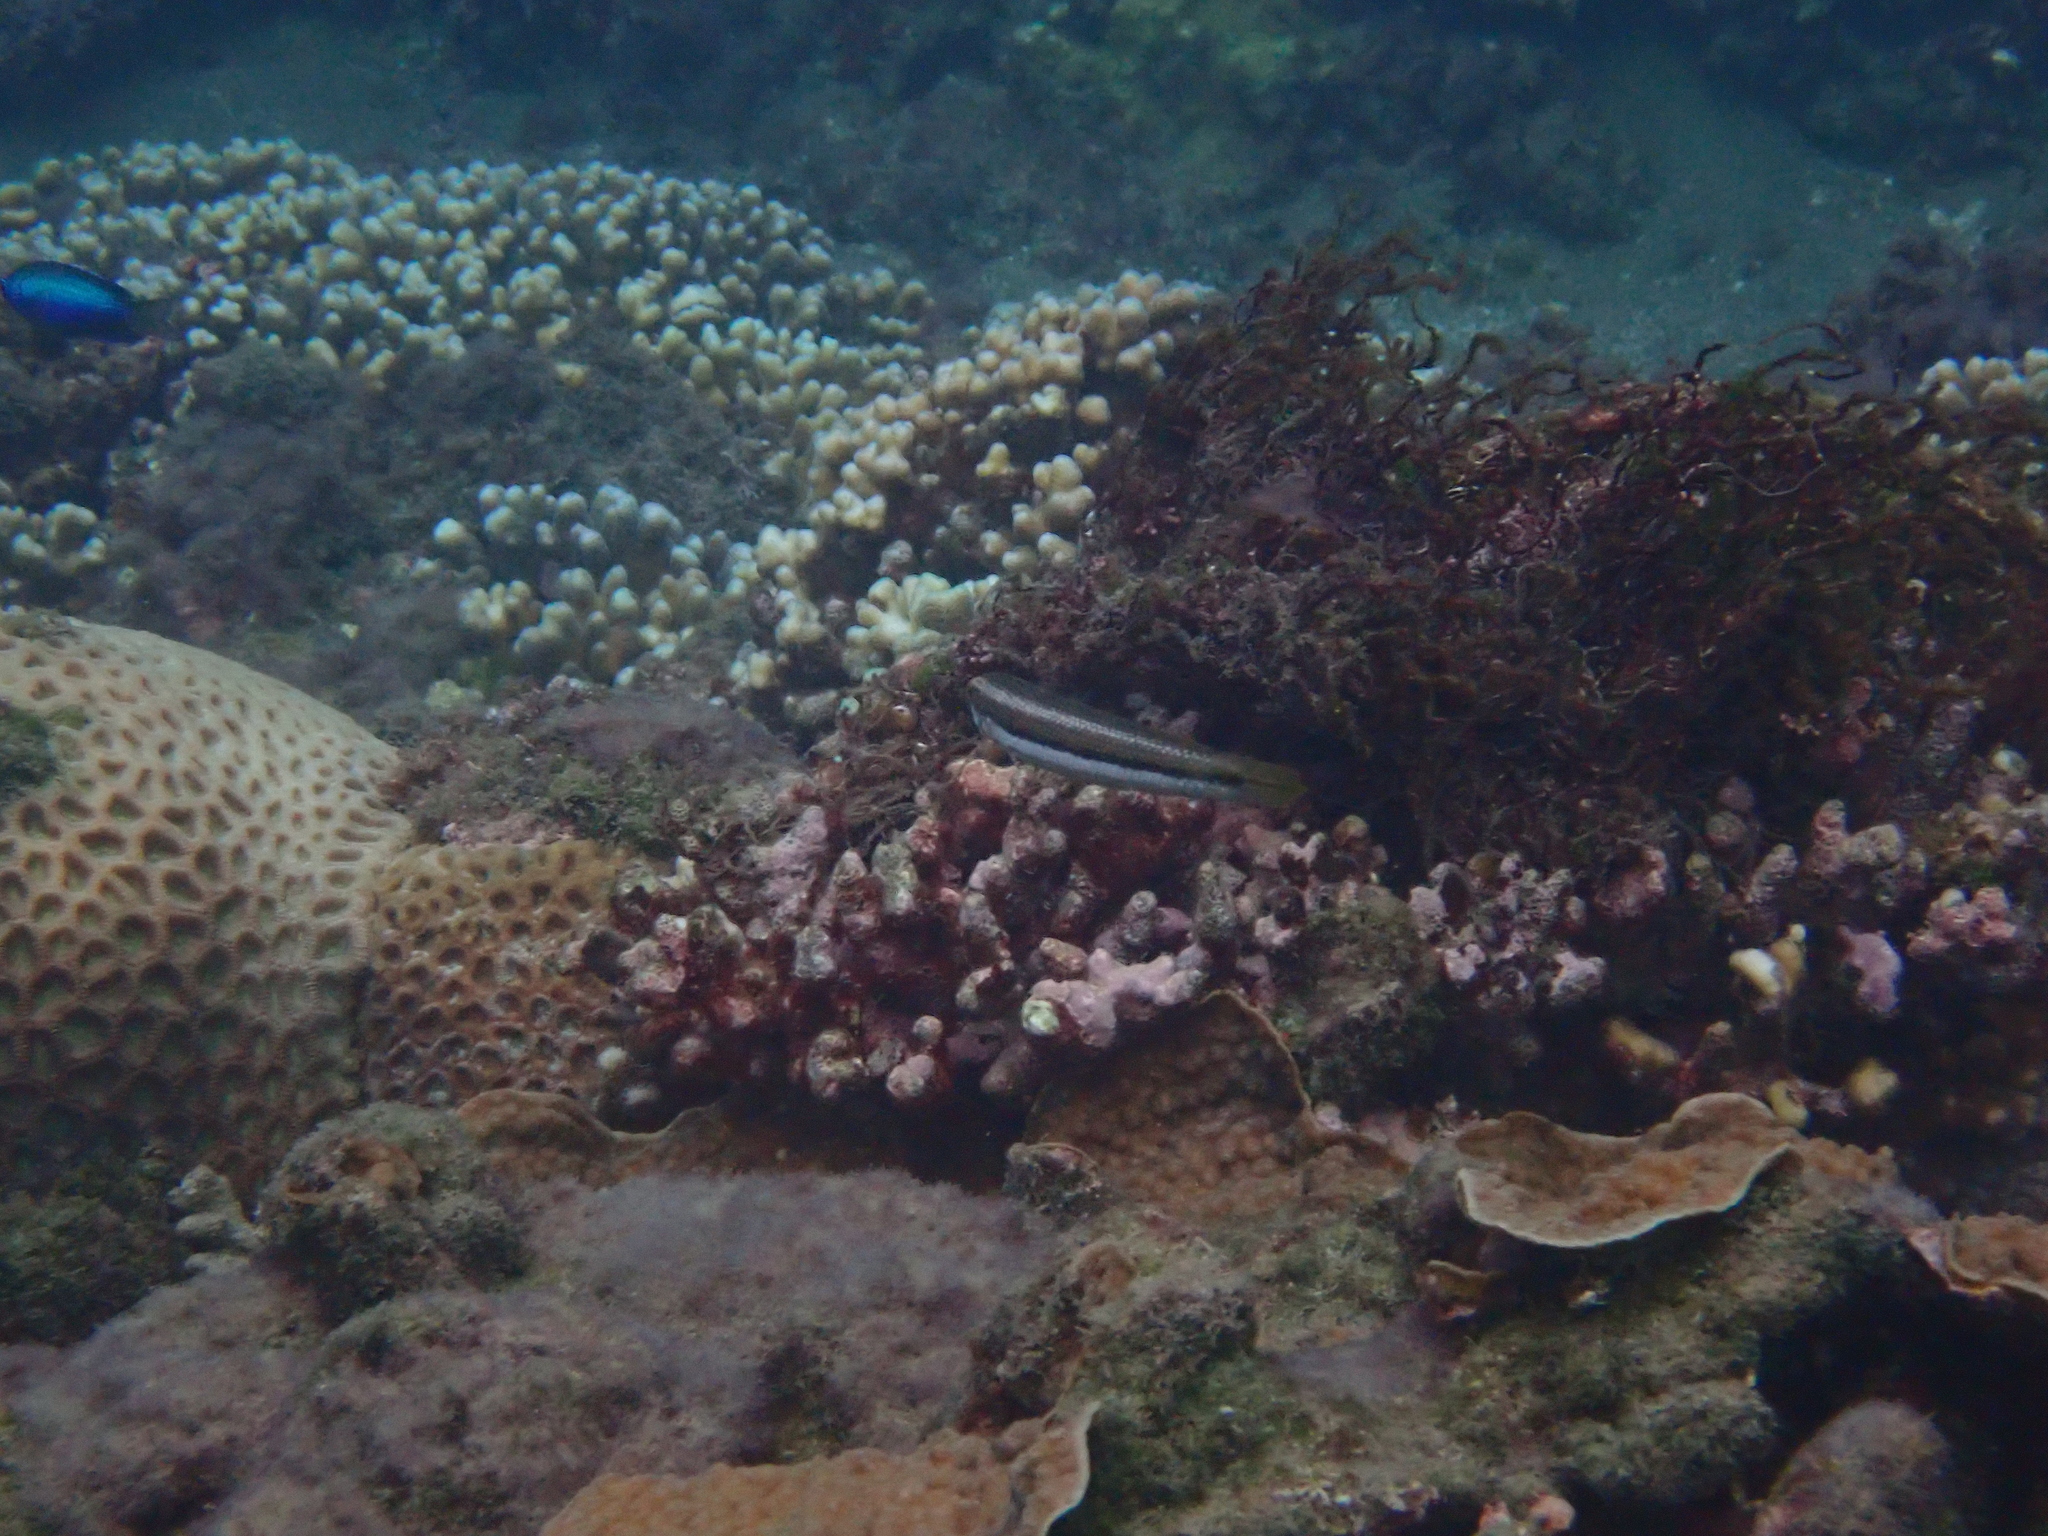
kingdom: Animalia
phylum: Chordata
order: Perciformes
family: Labridae
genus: Cheilio
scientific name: Cheilio inermis
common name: Cigar wrasse
